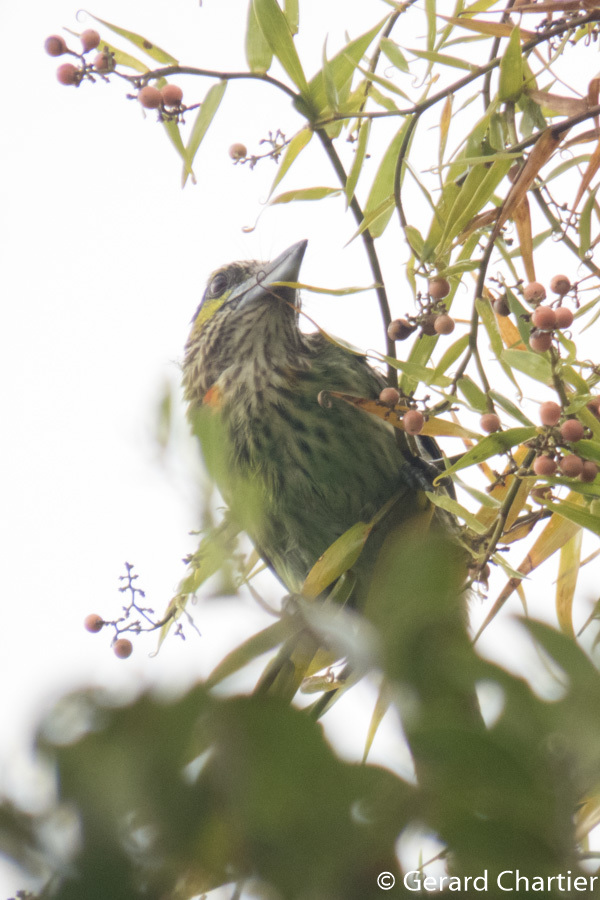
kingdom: Animalia
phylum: Chordata
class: Aves
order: Piciformes
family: Megalaimidae
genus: Psilopogon
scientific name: Psilopogon faiostrictus
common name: Green-eared barbet
